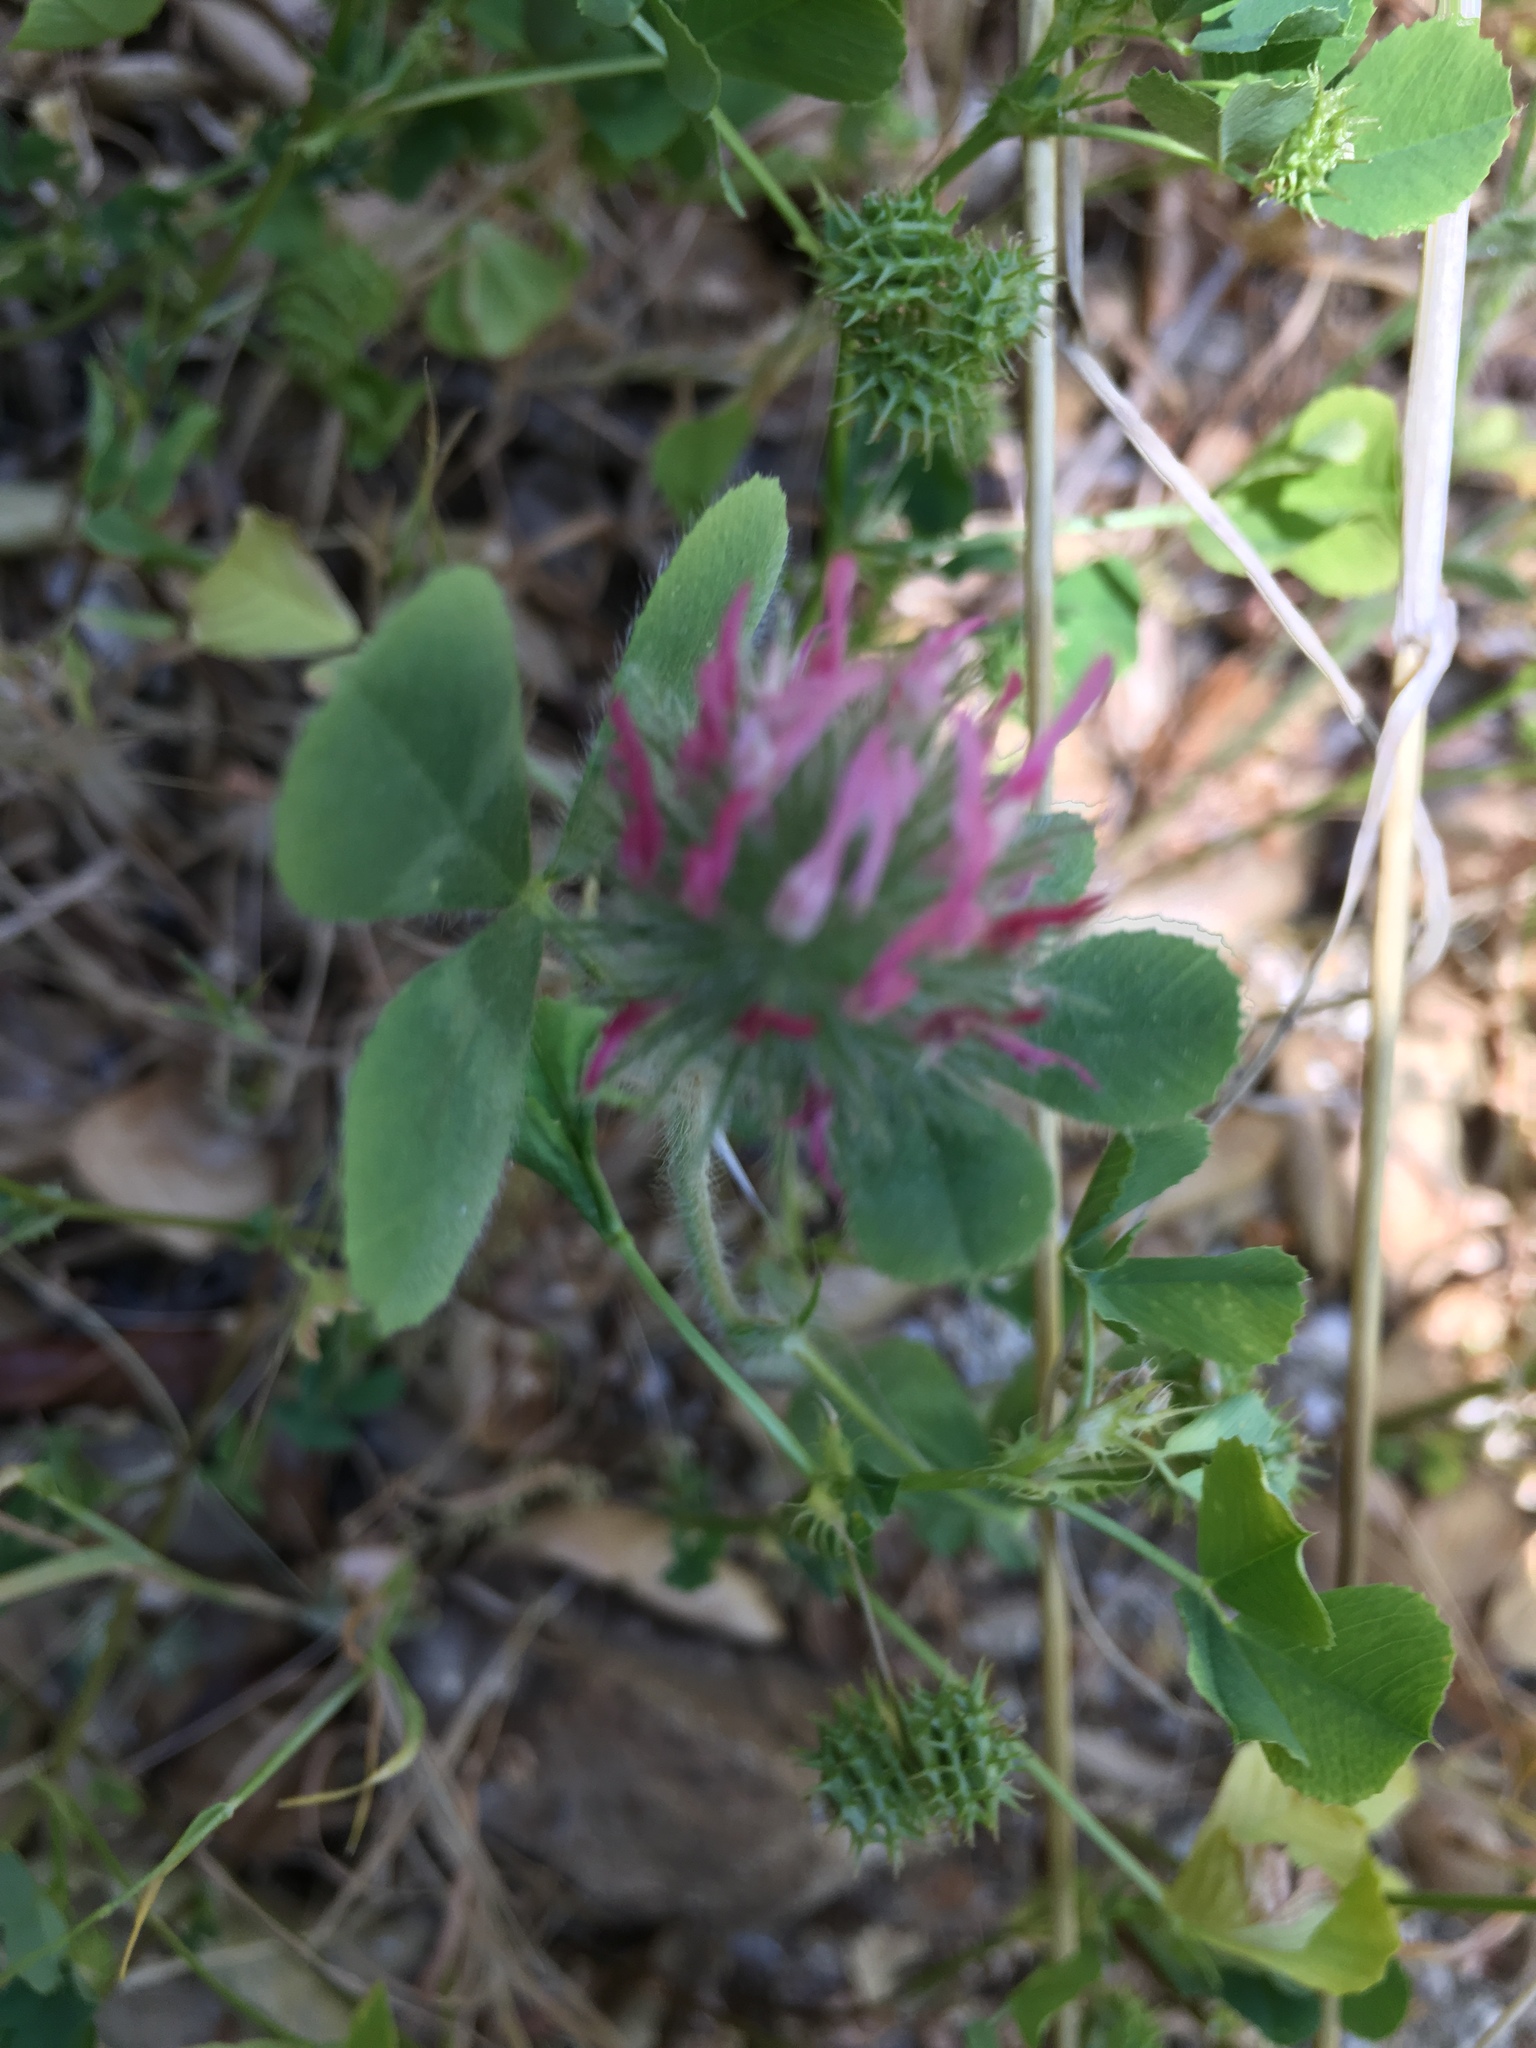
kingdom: Plantae
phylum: Tracheophyta
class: Magnoliopsida
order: Fabales
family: Fabaceae
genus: Trifolium
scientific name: Trifolium hirtum
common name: Rose clover
